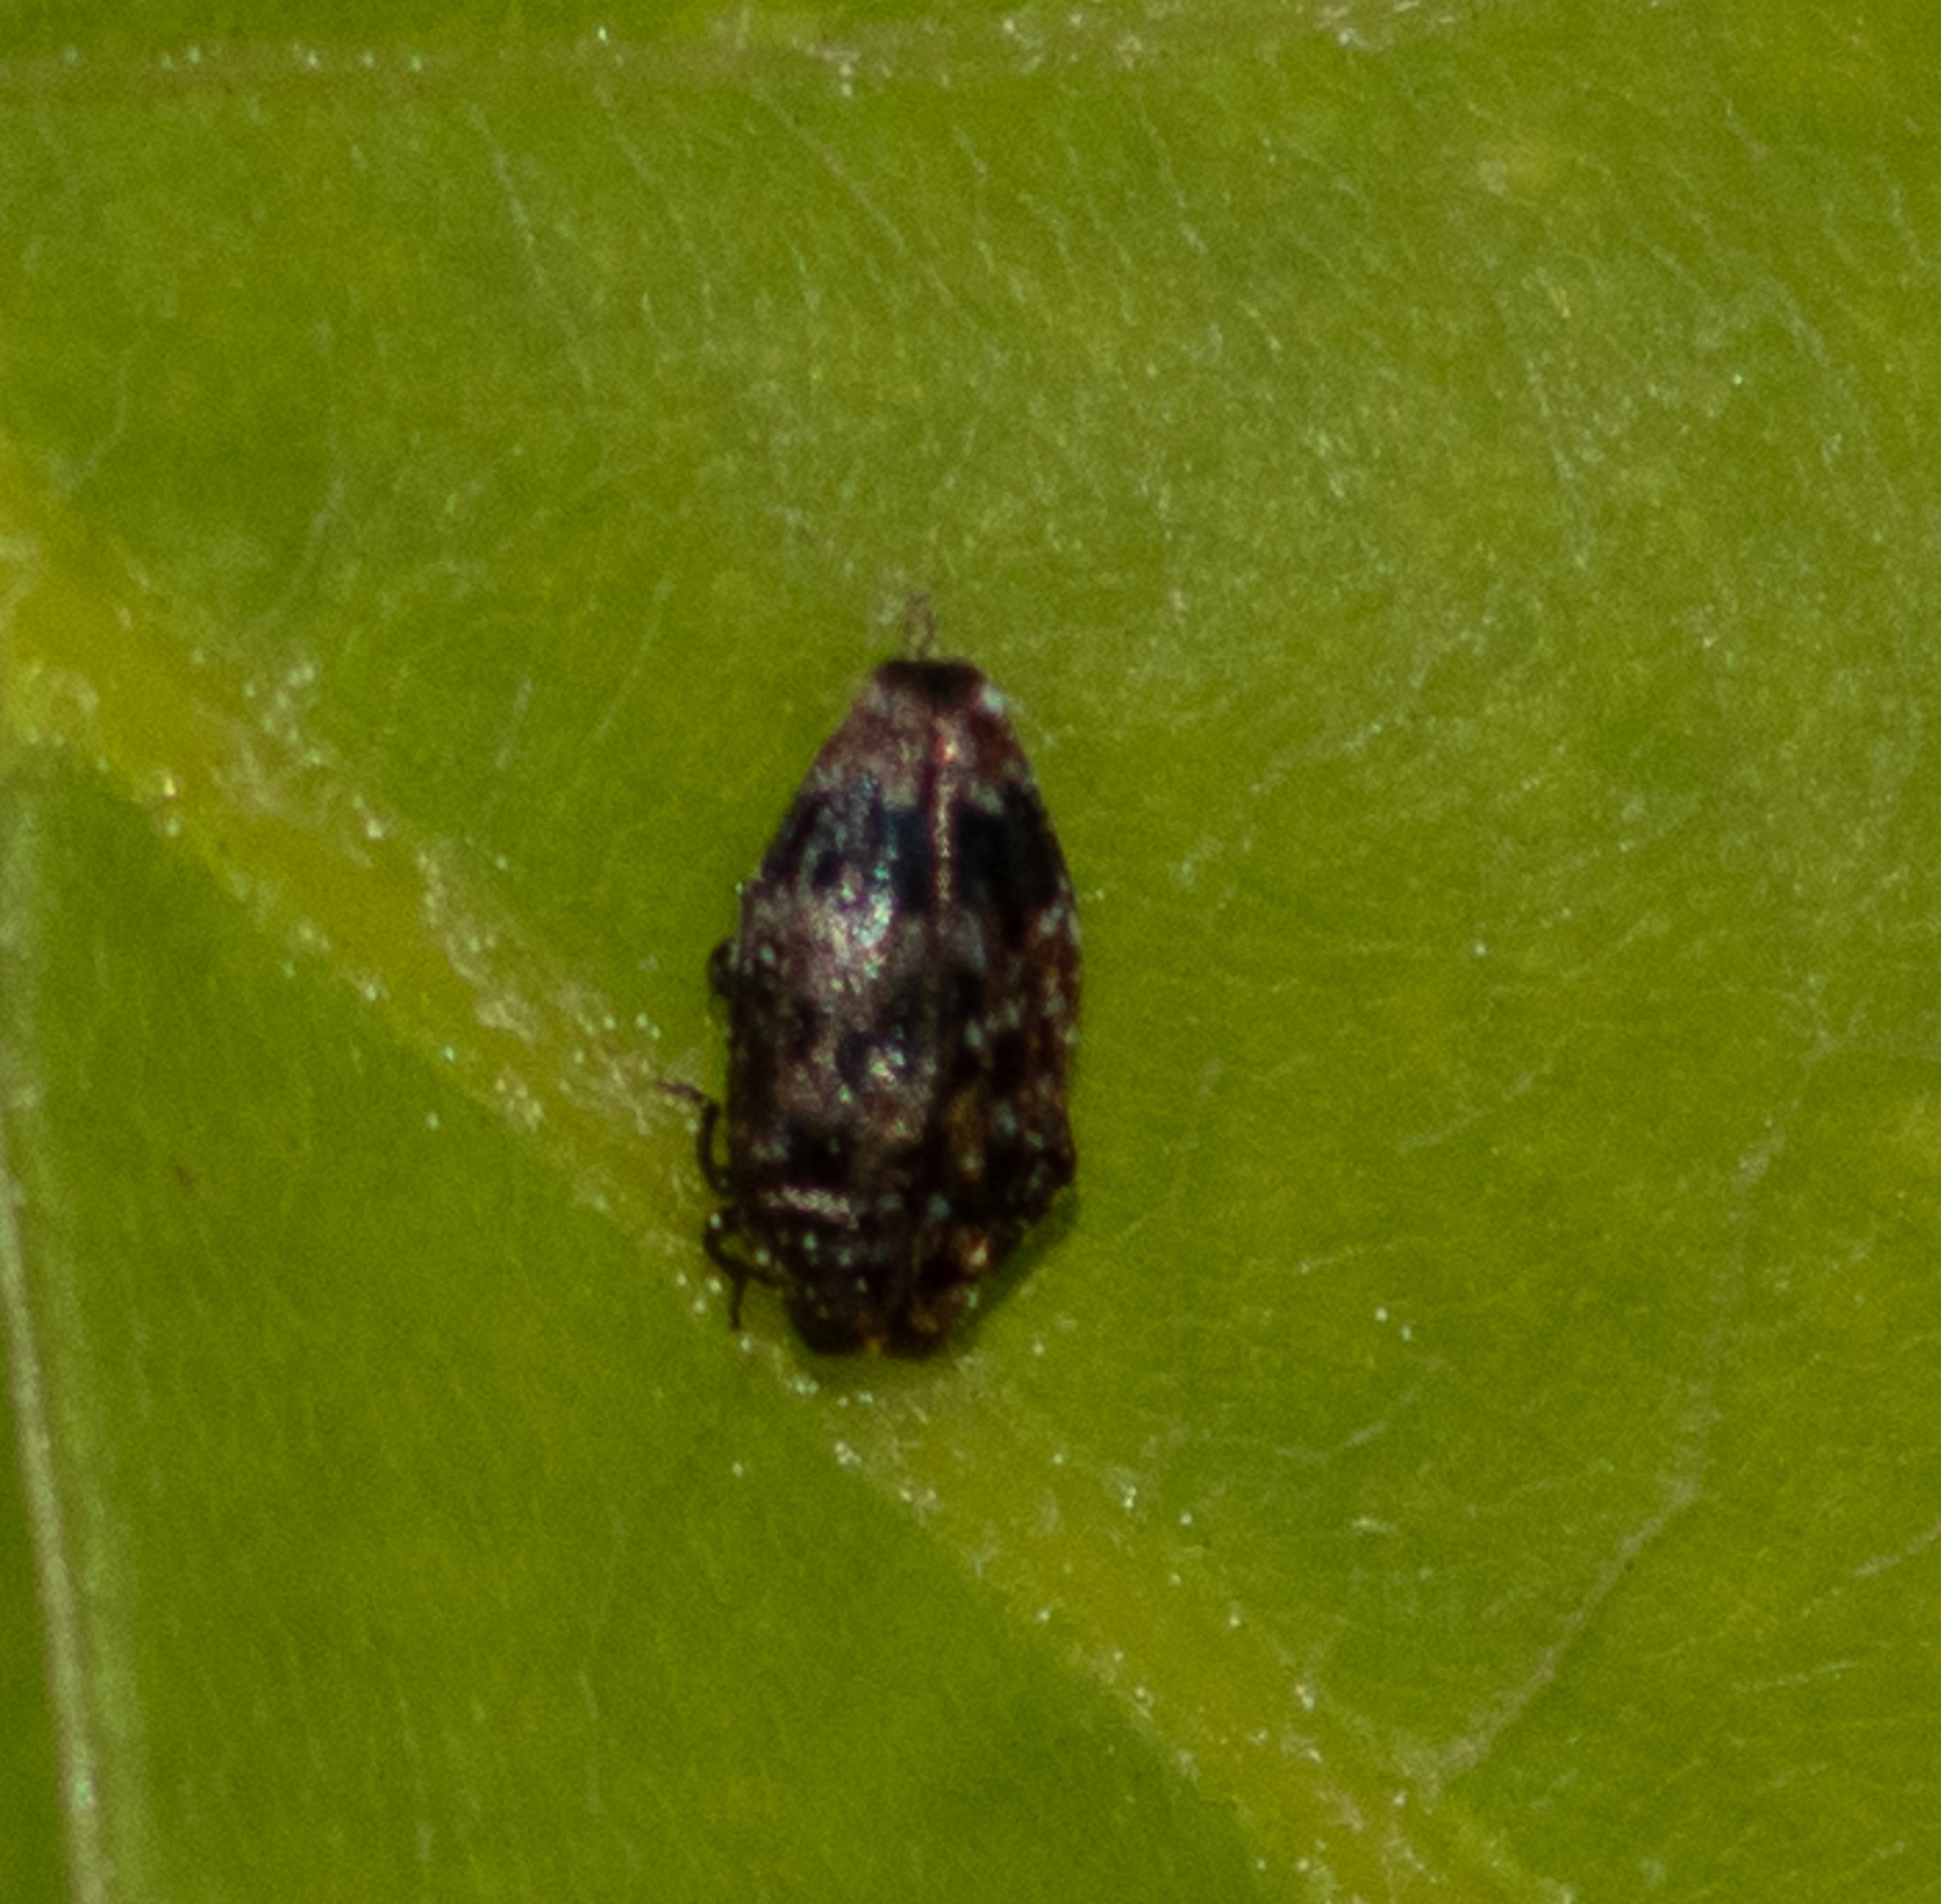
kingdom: Animalia
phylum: Arthropoda
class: Insecta
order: Coleoptera
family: Buprestidae
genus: Brachys
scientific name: Brachys ovatus
